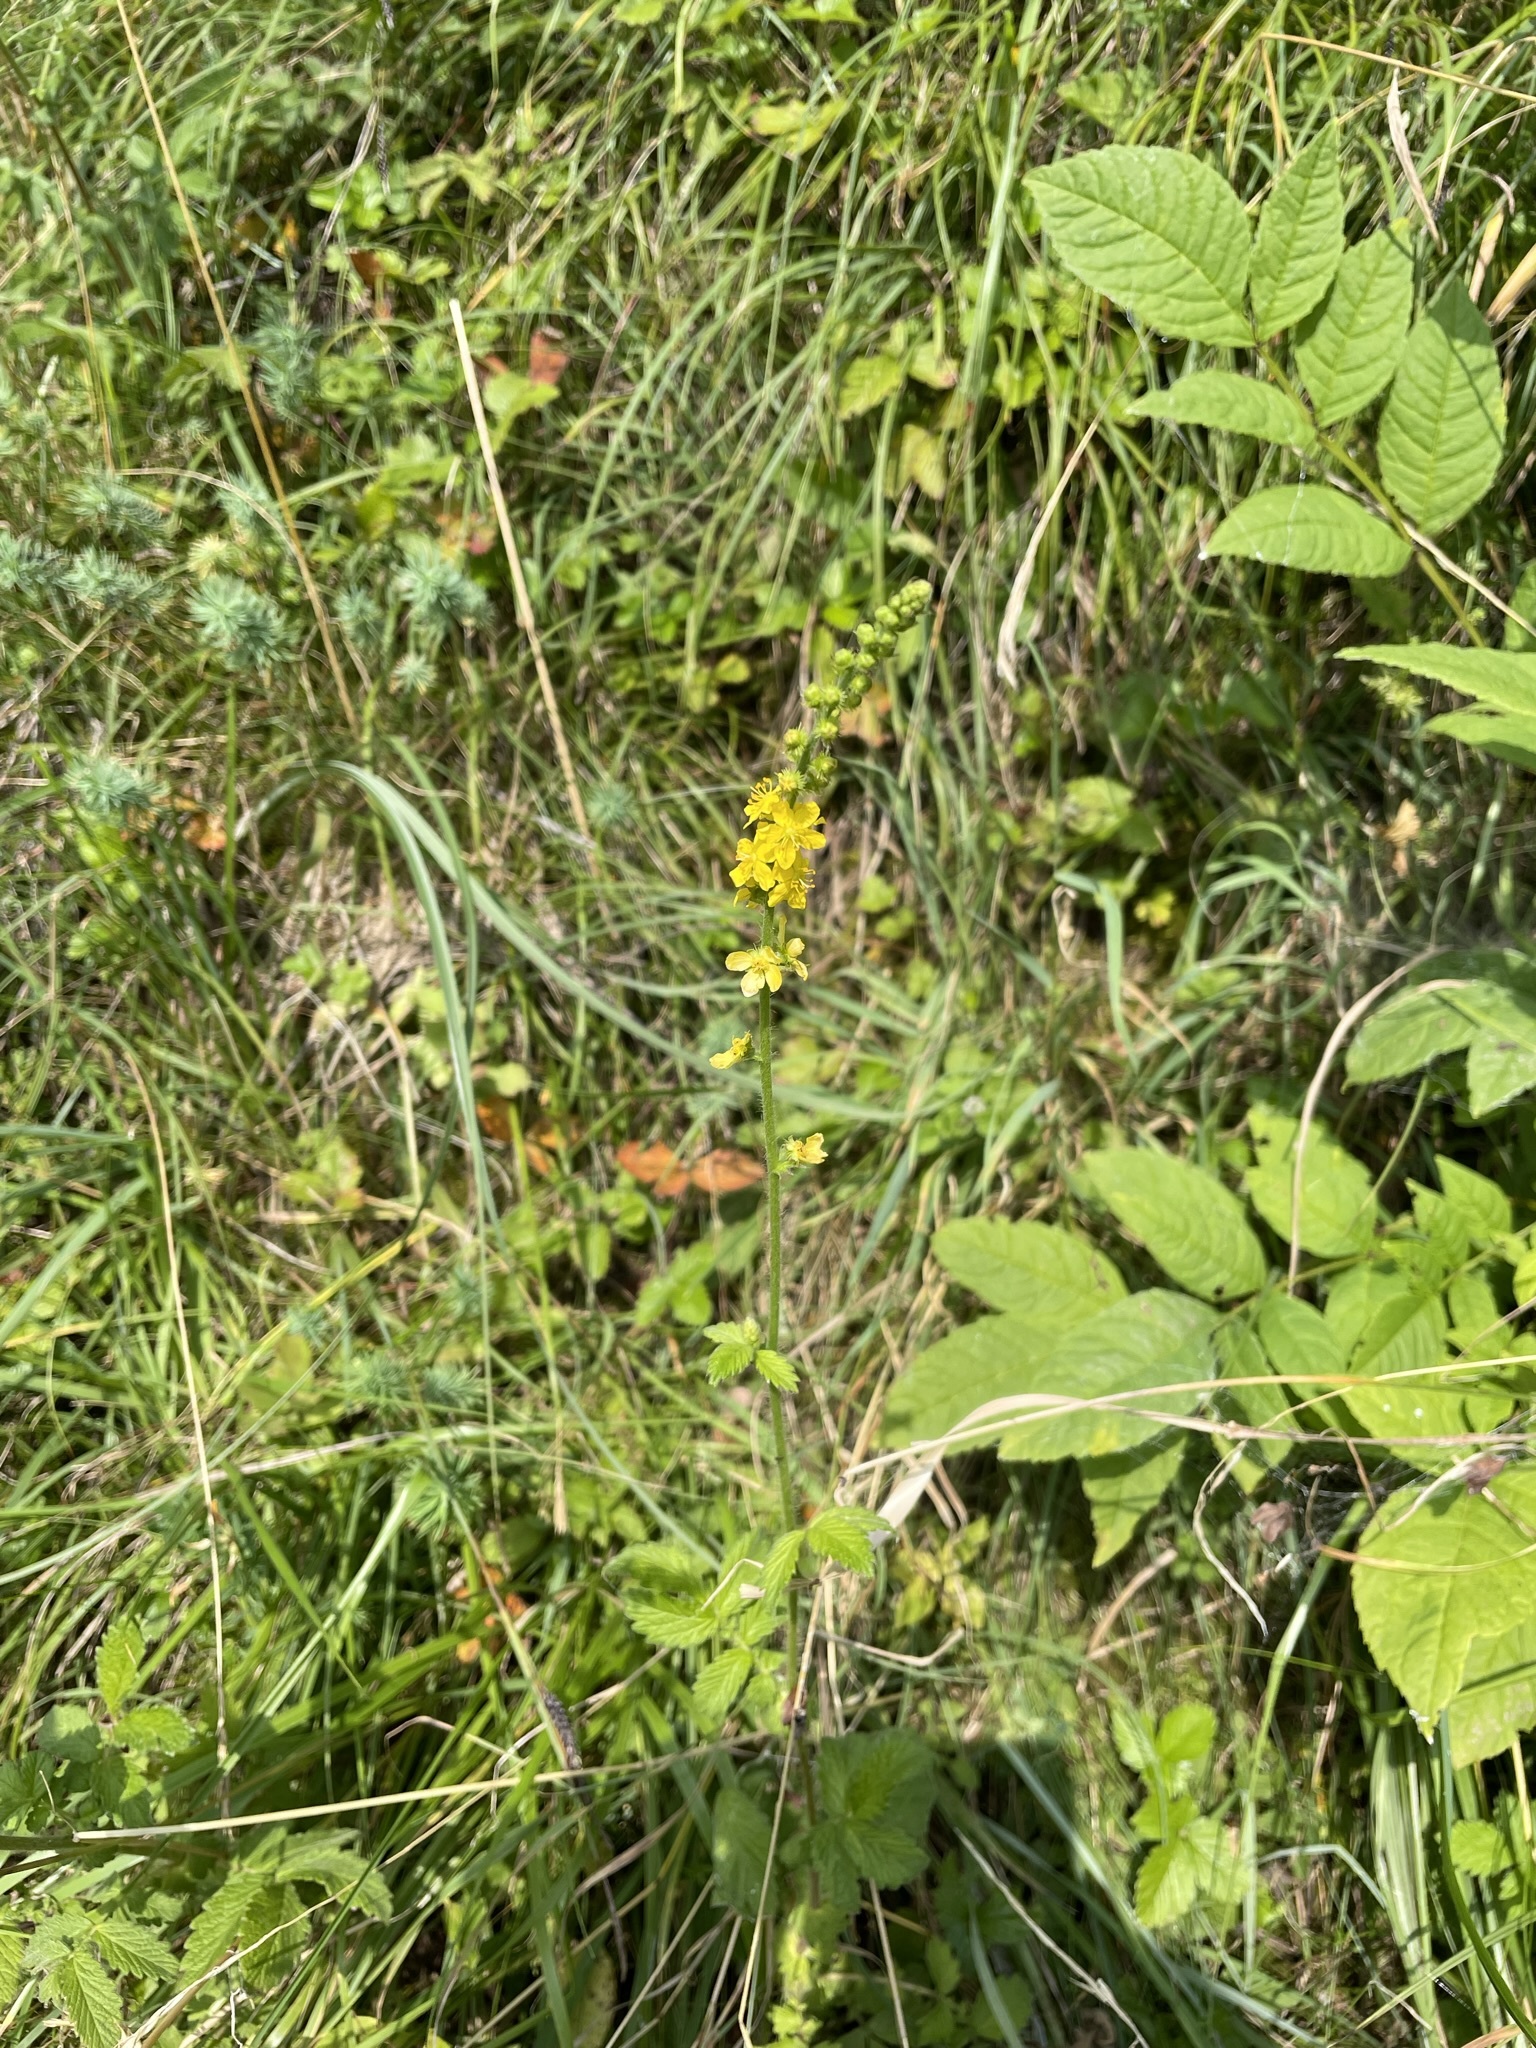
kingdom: Plantae
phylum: Tracheophyta
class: Magnoliopsida
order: Rosales
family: Rosaceae
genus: Agrimonia
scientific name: Agrimonia eupatoria
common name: Agrimony
